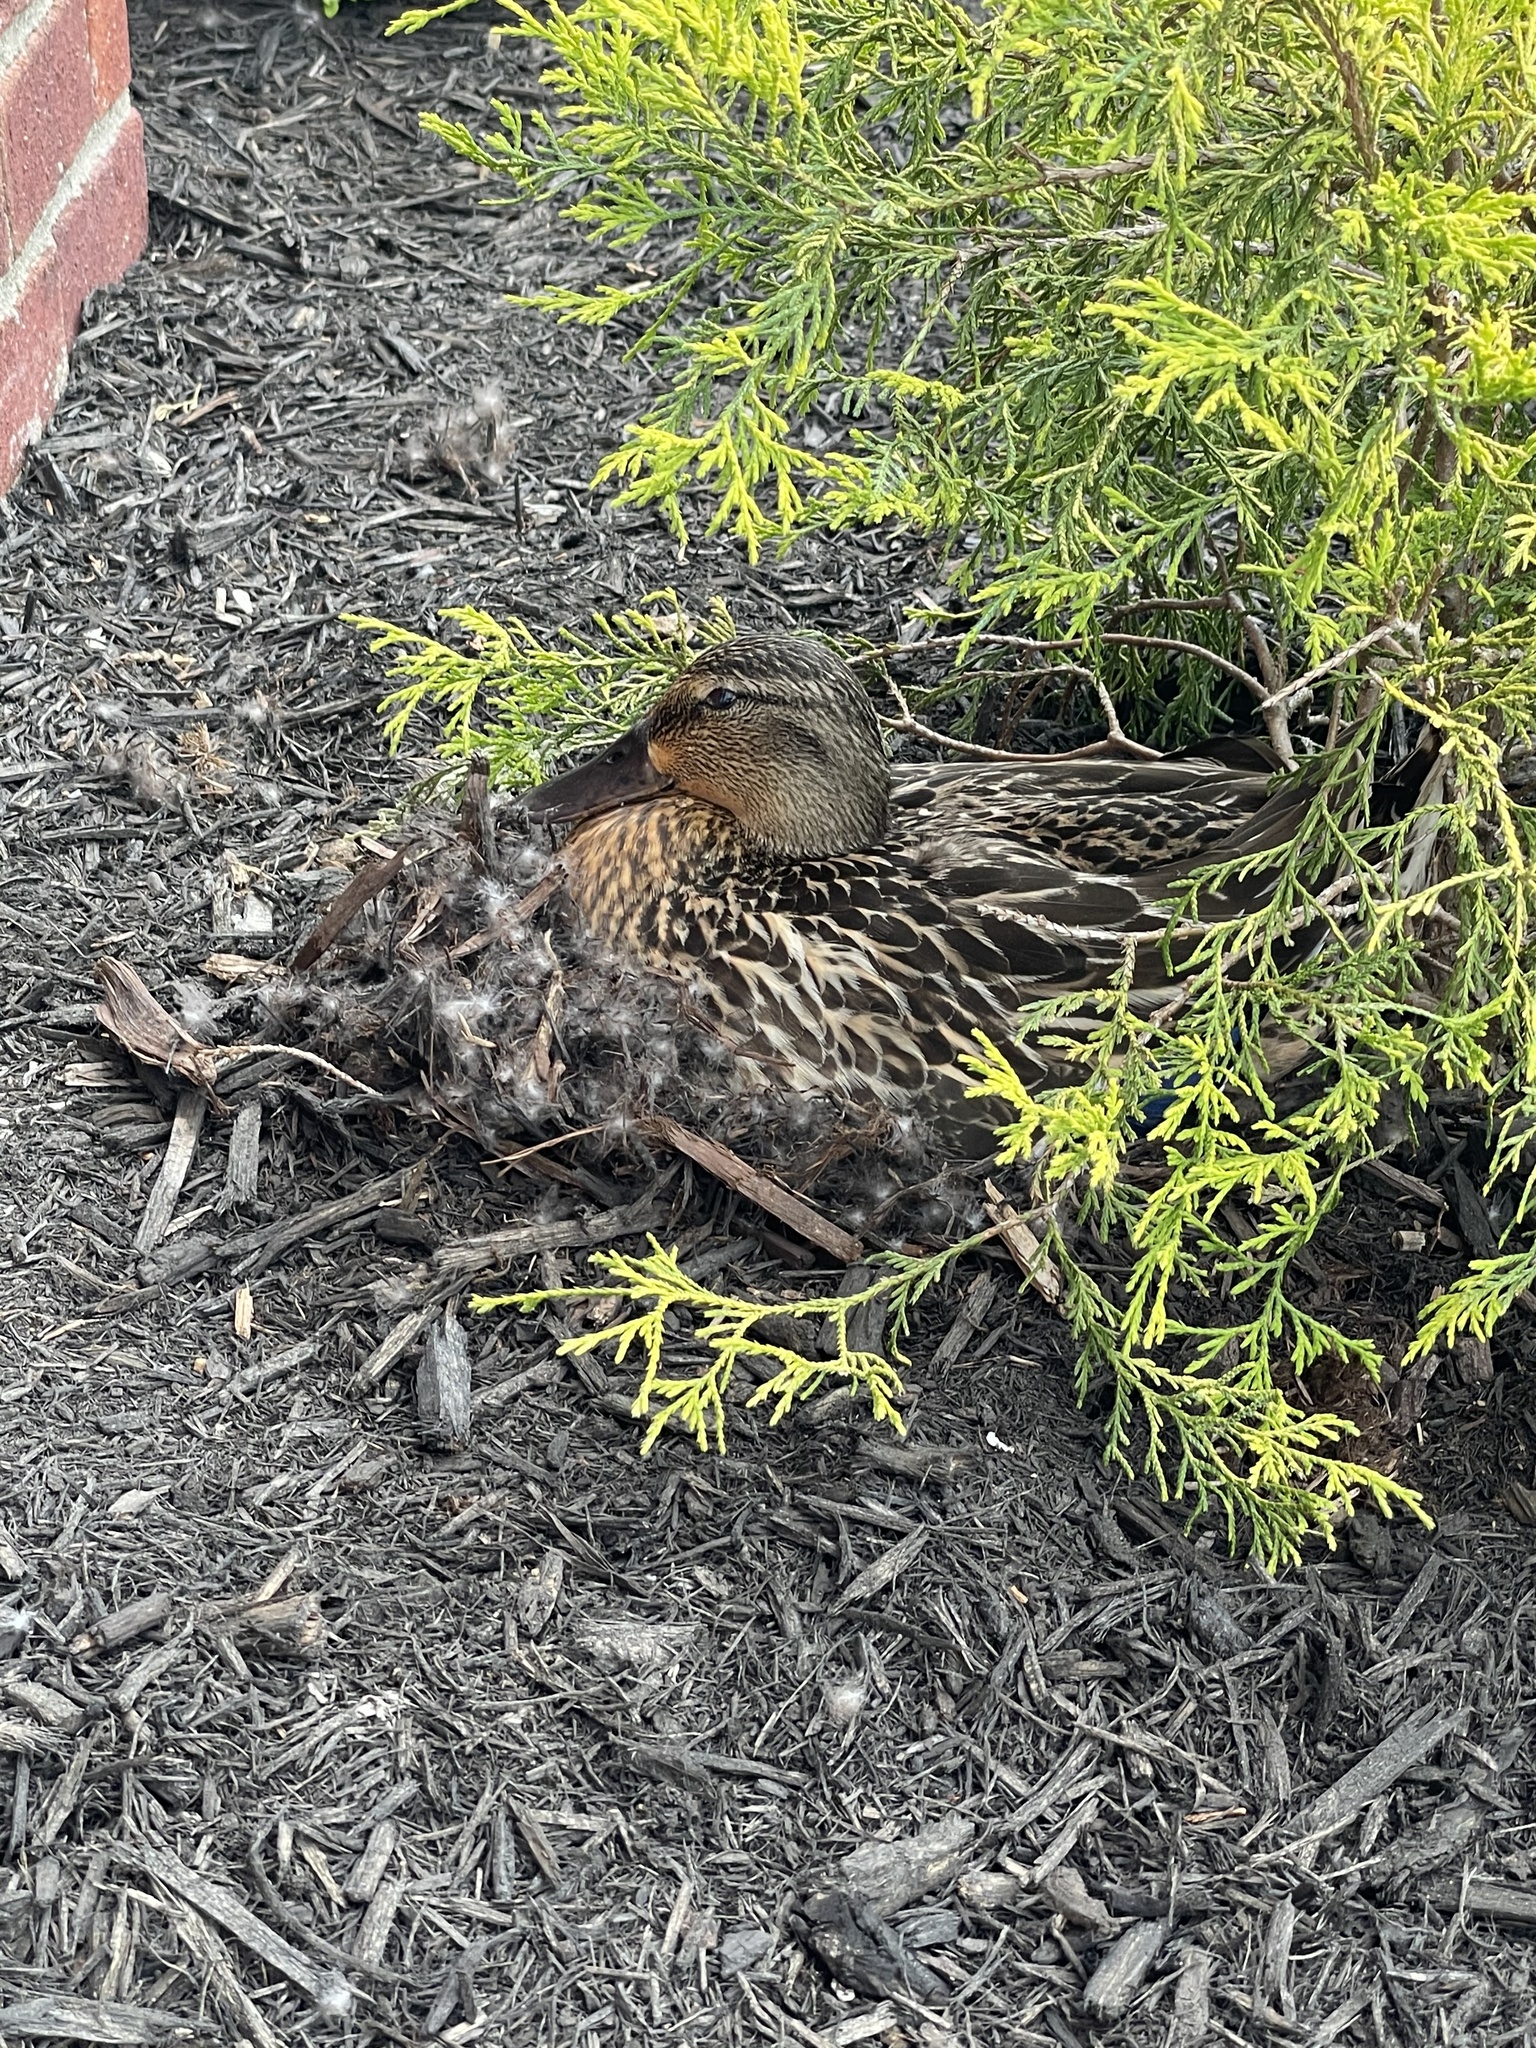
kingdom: Animalia
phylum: Chordata
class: Aves
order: Anseriformes
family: Anatidae
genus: Anas
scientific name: Anas platyrhynchos
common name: Mallard
